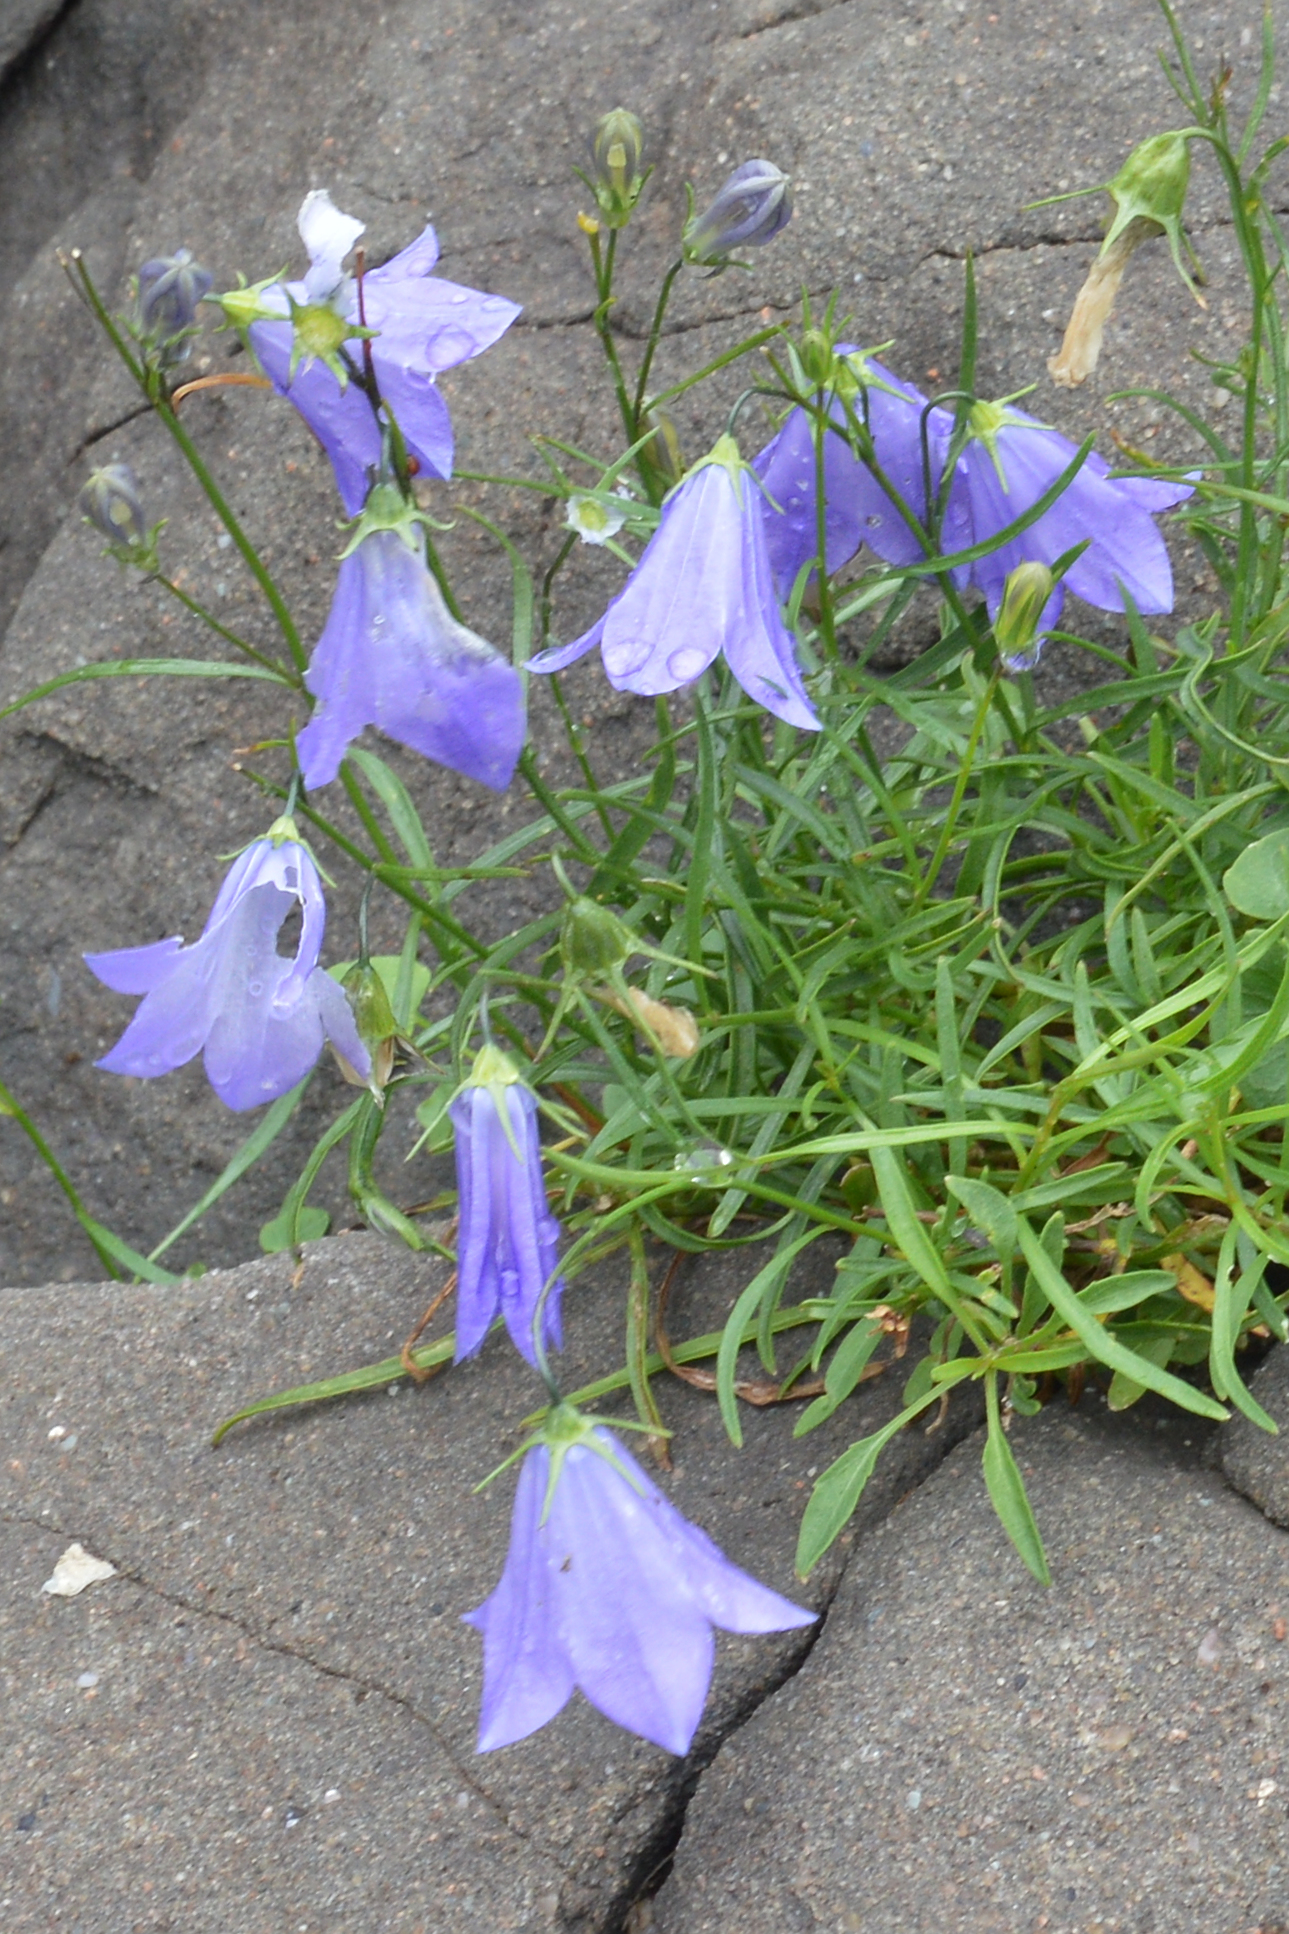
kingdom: Plantae
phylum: Tracheophyta
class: Magnoliopsida
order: Asterales
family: Campanulaceae
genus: Campanula
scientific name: Campanula giesekiana
